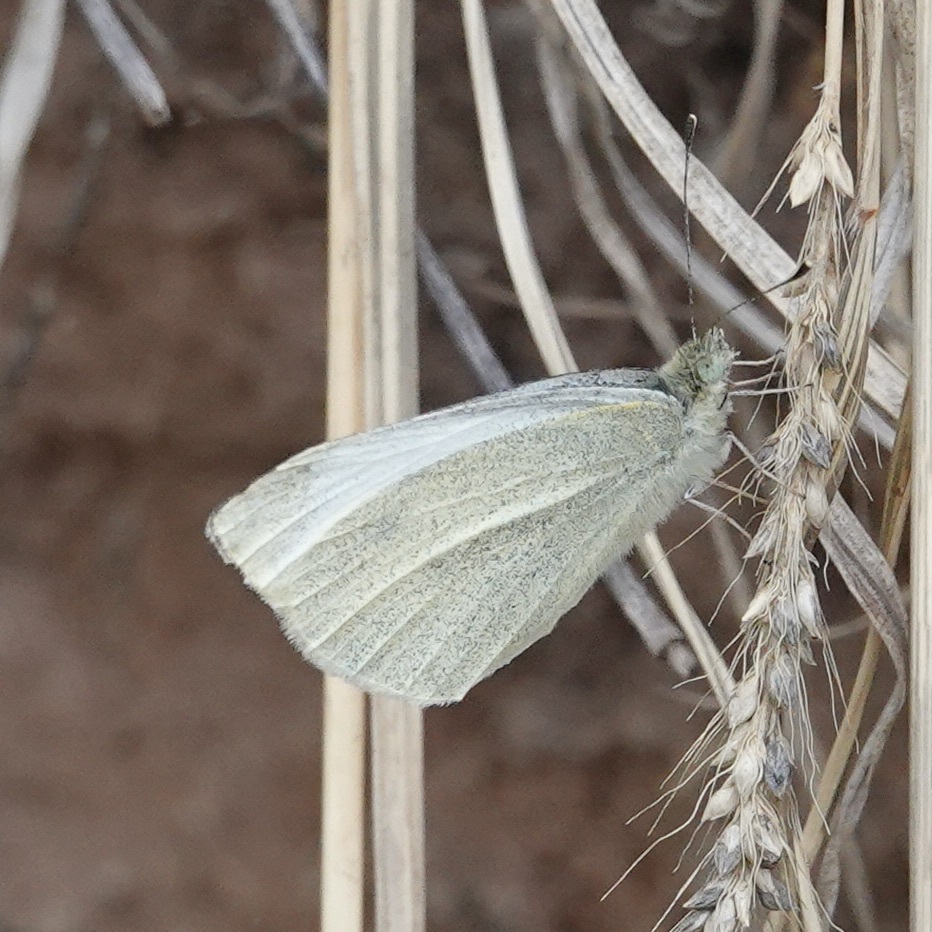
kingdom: Animalia
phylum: Arthropoda
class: Insecta
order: Lepidoptera
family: Pieridae
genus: Pieris
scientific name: Pieris rapae
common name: Small white
